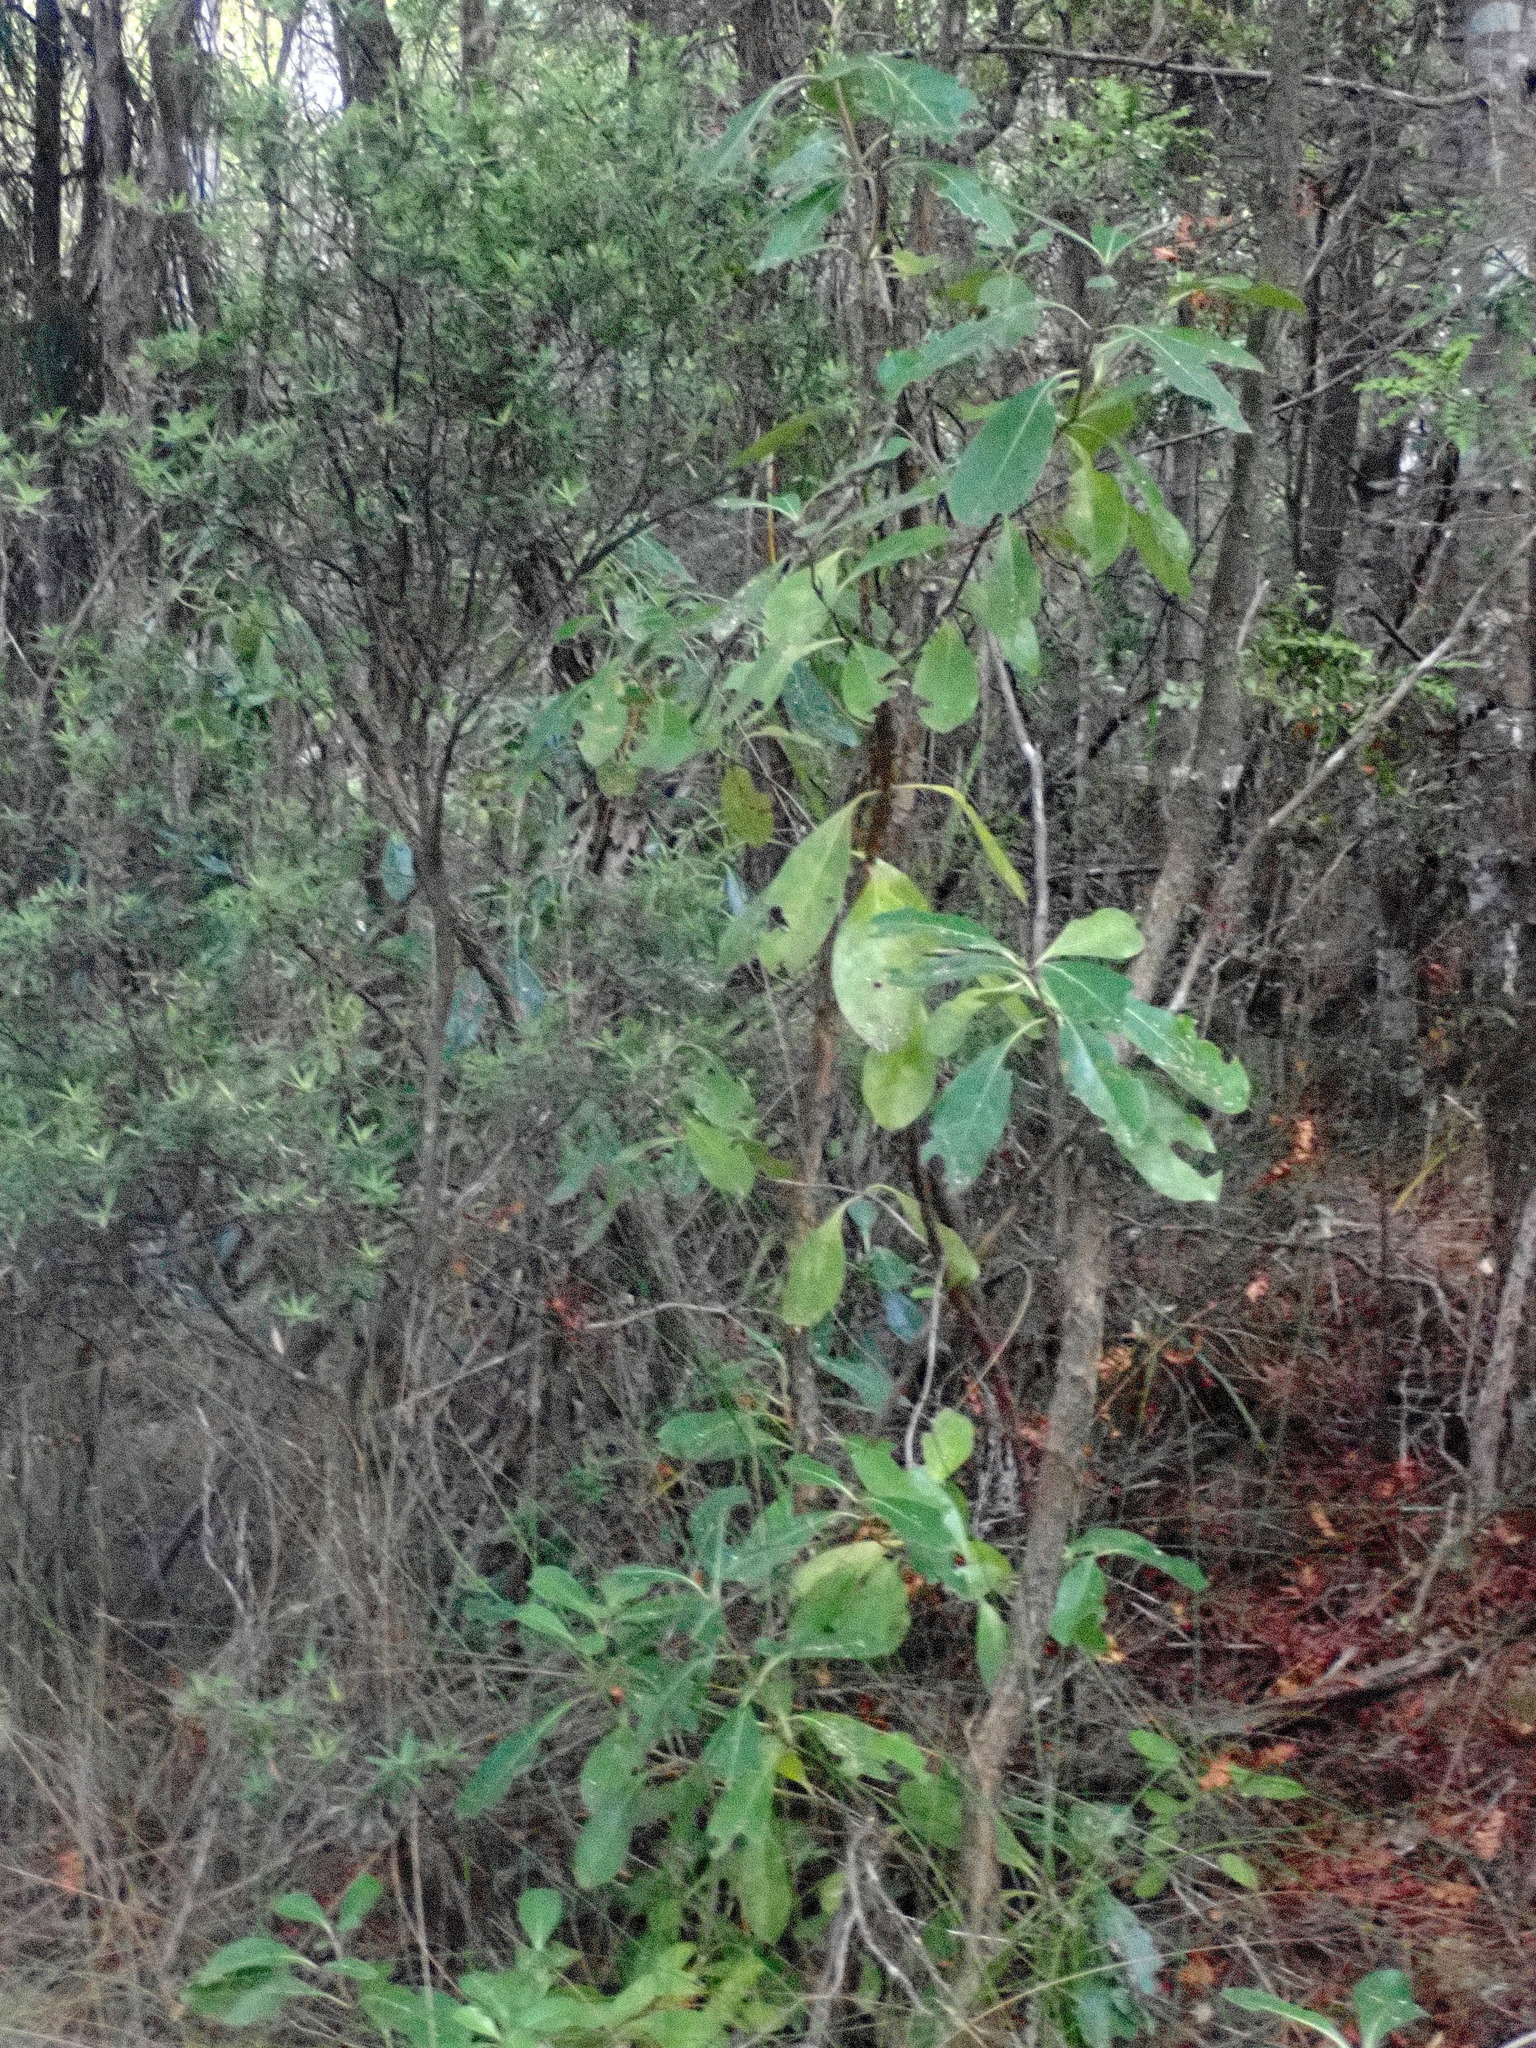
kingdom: Plantae
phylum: Tracheophyta
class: Magnoliopsida
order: Gentianales
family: Rubiaceae
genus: Coprosma
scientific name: Coprosma lucida
